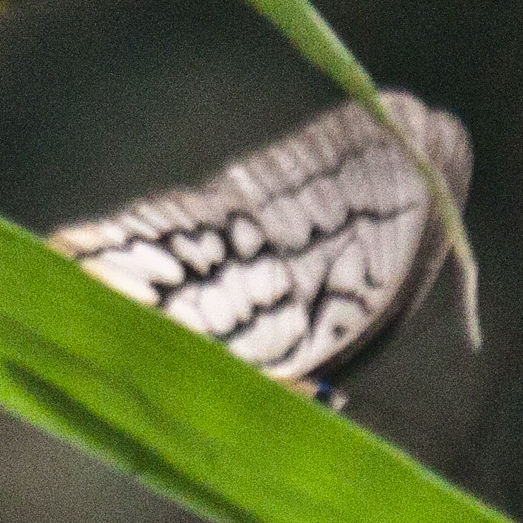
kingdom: Animalia
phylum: Arthropoda
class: Insecta
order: Lepidoptera
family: Nymphalidae
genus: Faunis
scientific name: Faunis Melanocyma faunula
